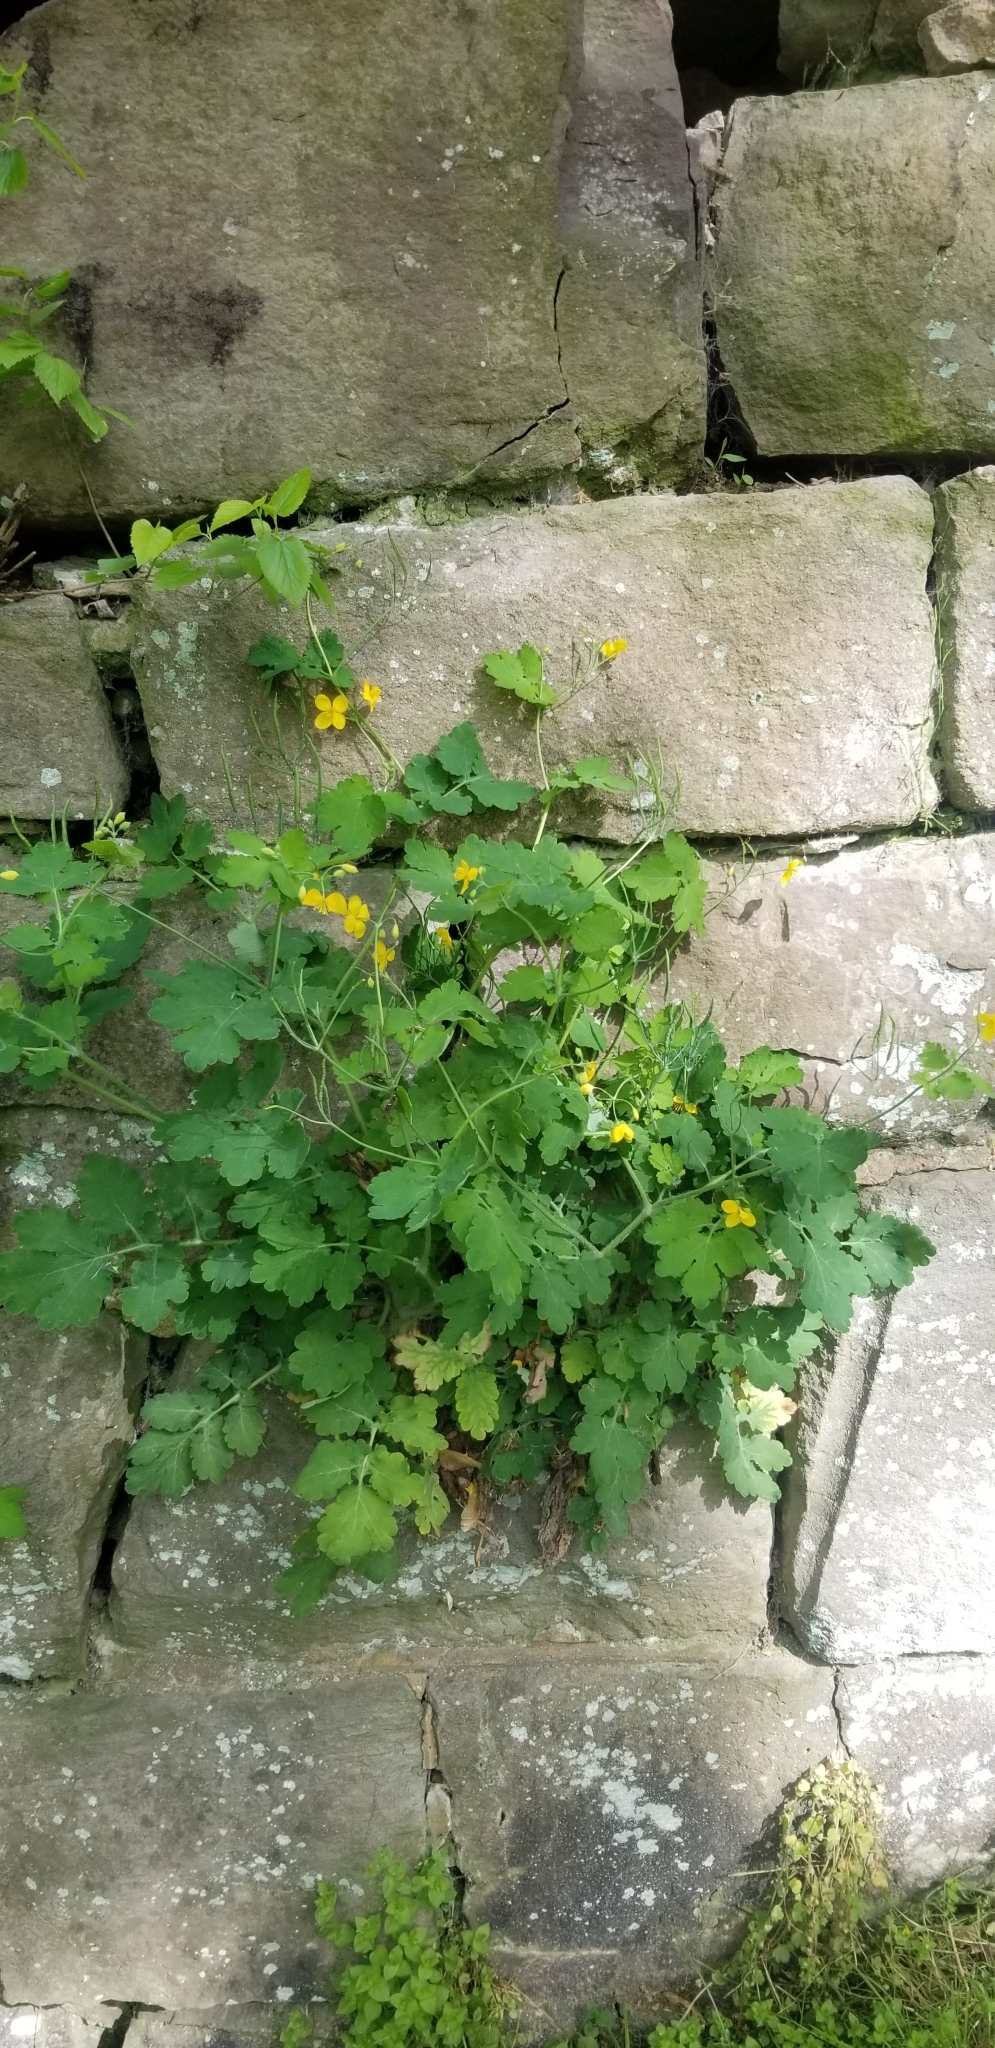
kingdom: Plantae
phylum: Tracheophyta
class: Magnoliopsida
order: Ranunculales
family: Papaveraceae
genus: Chelidonium
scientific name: Chelidonium majus
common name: Greater celandine
